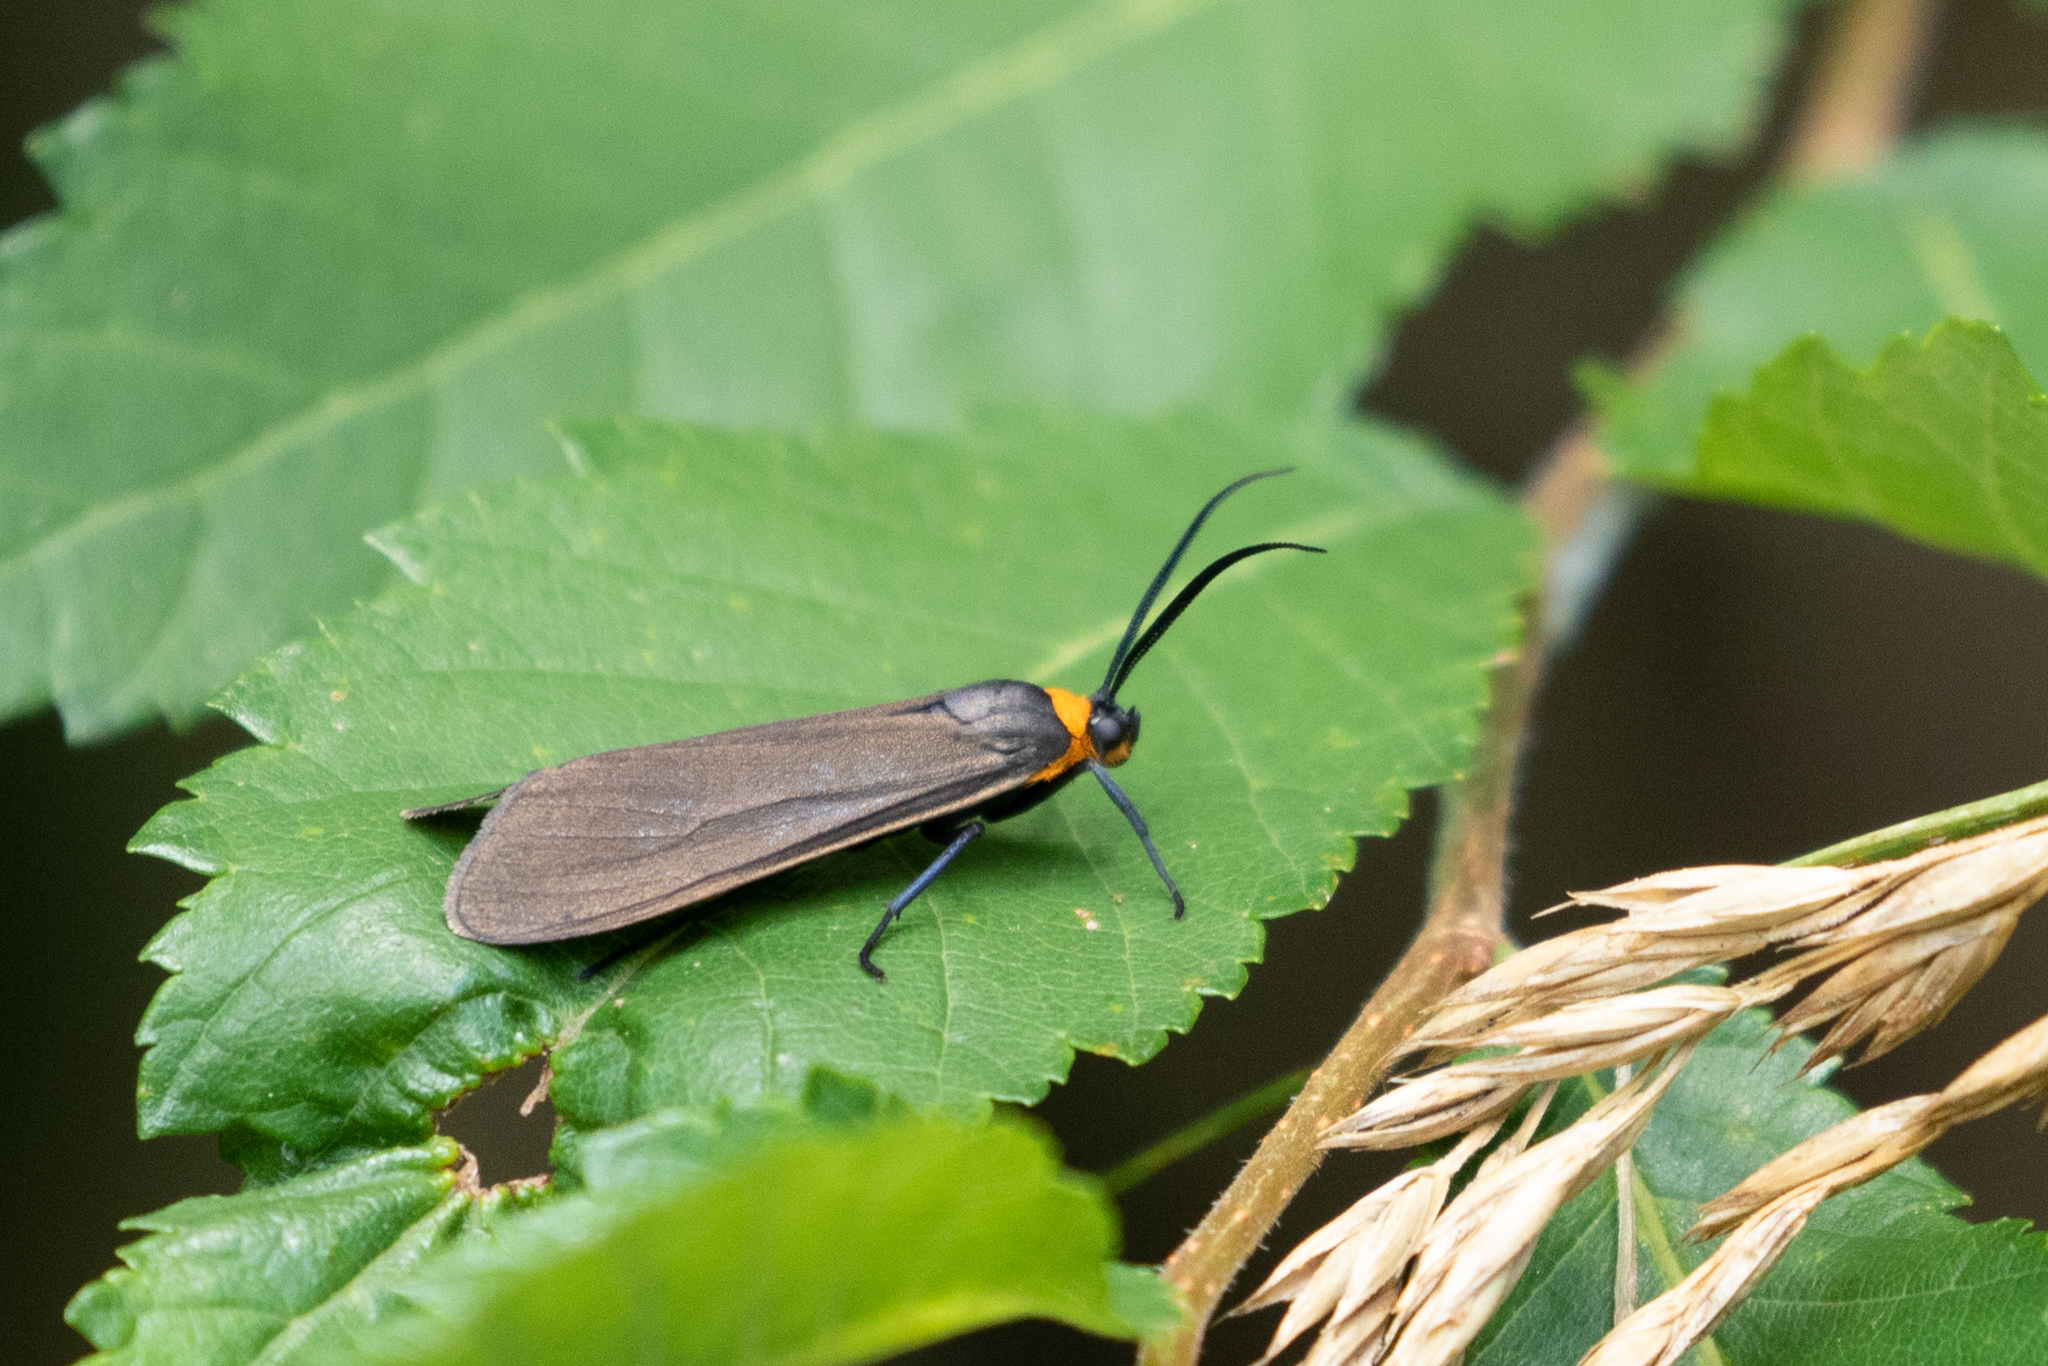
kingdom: Animalia
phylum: Arthropoda
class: Insecta
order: Lepidoptera
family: Erebidae
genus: Cisseps
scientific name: Cisseps fulvicollis
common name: Yellow-collared scape moth
